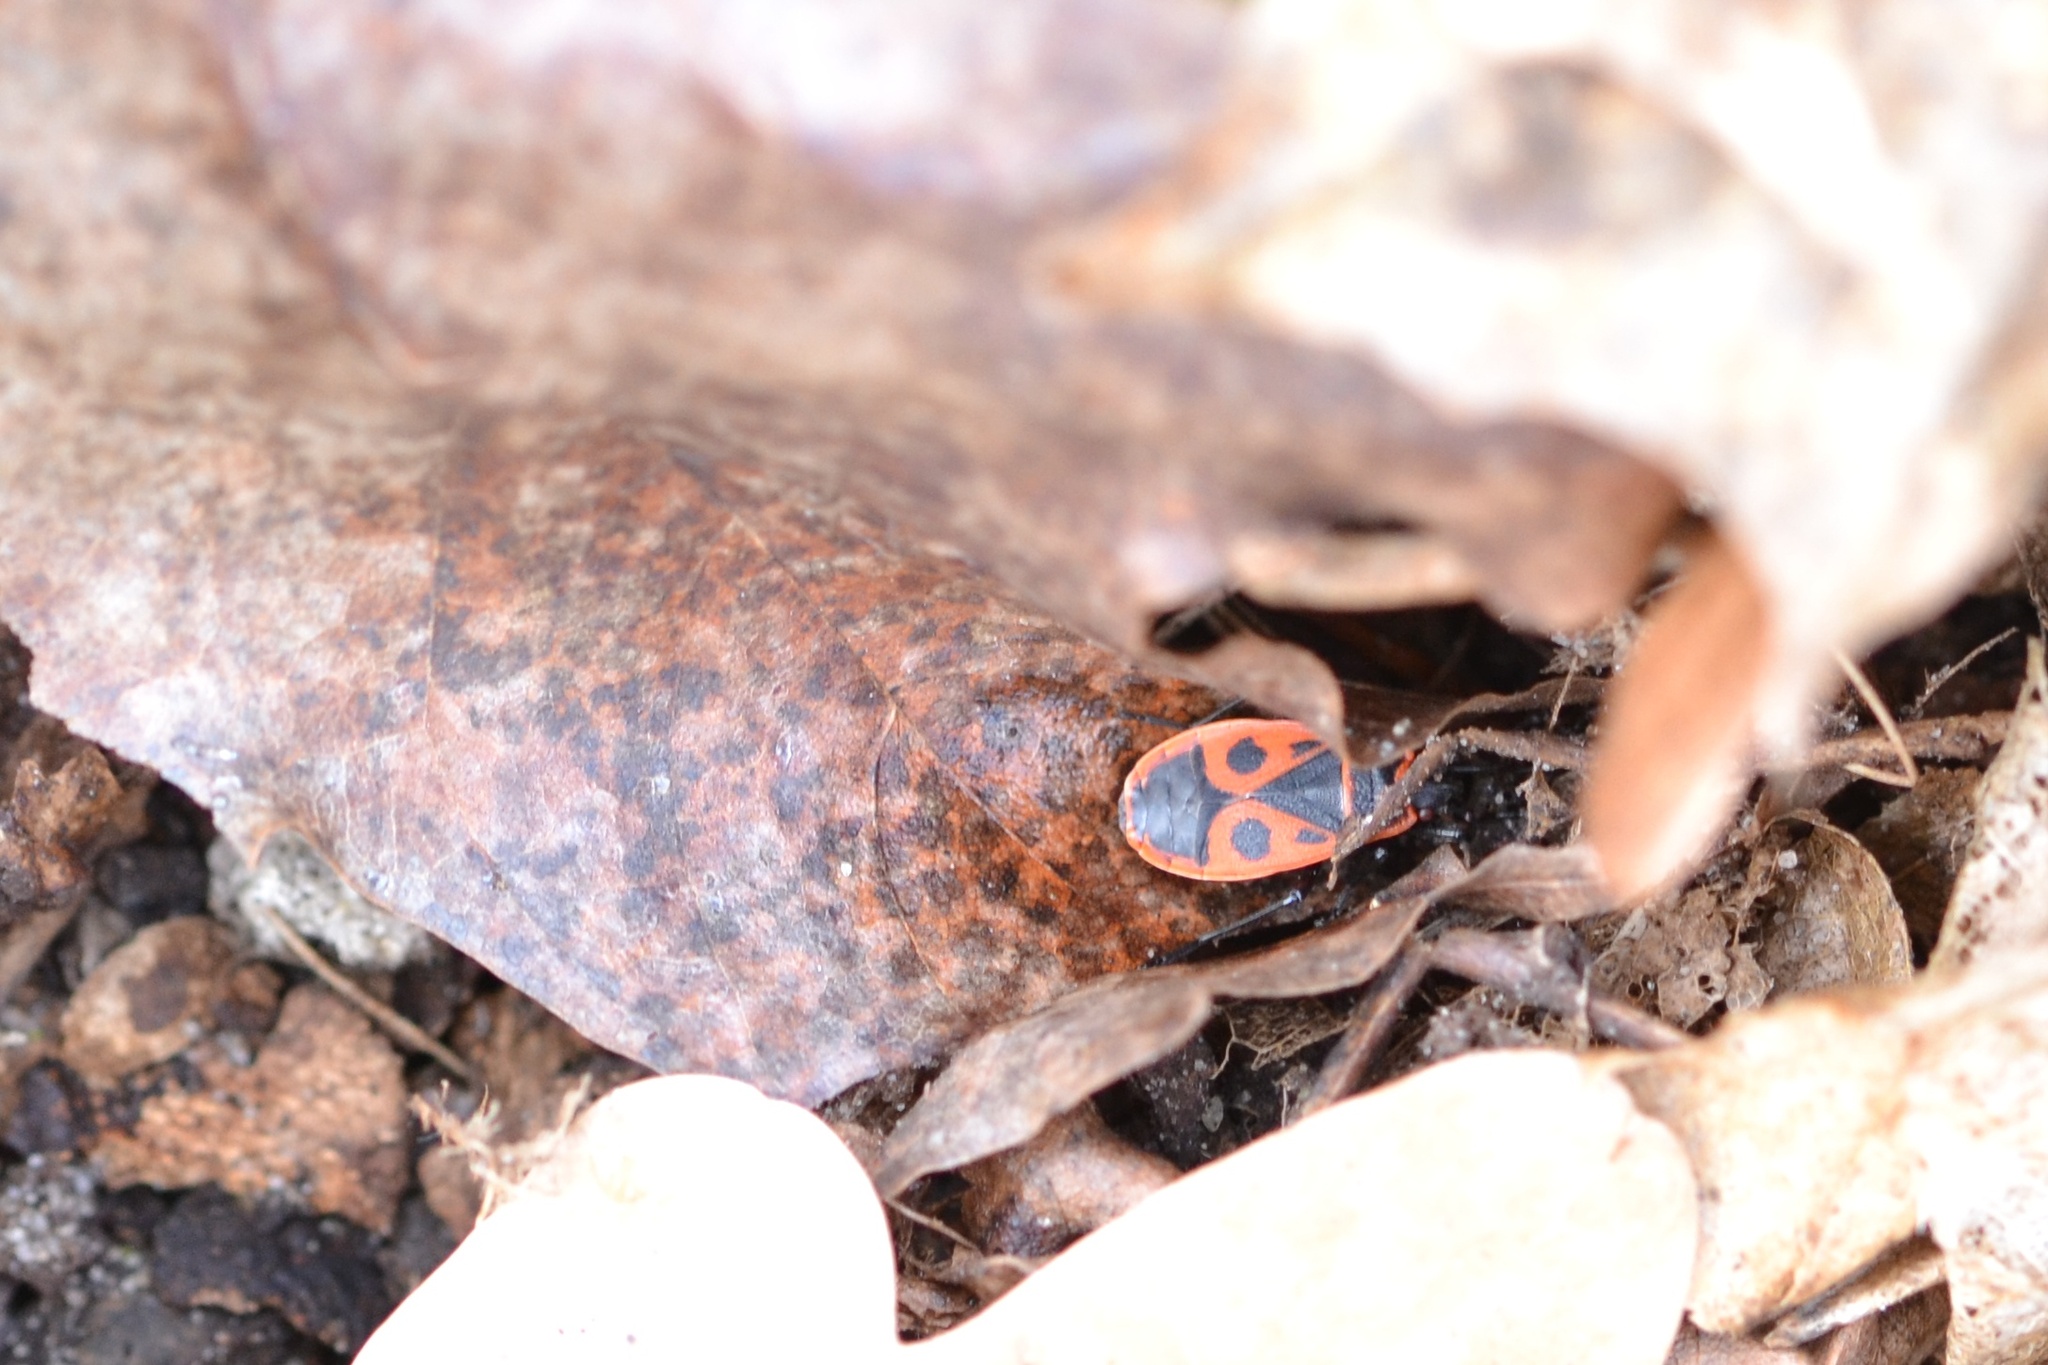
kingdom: Animalia
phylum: Arthropoda
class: Insecta
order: Hemiptera
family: Pyrrhocoridae
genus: Pyrrhocoris
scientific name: Pyrrhocoris apterus
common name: Firebug
